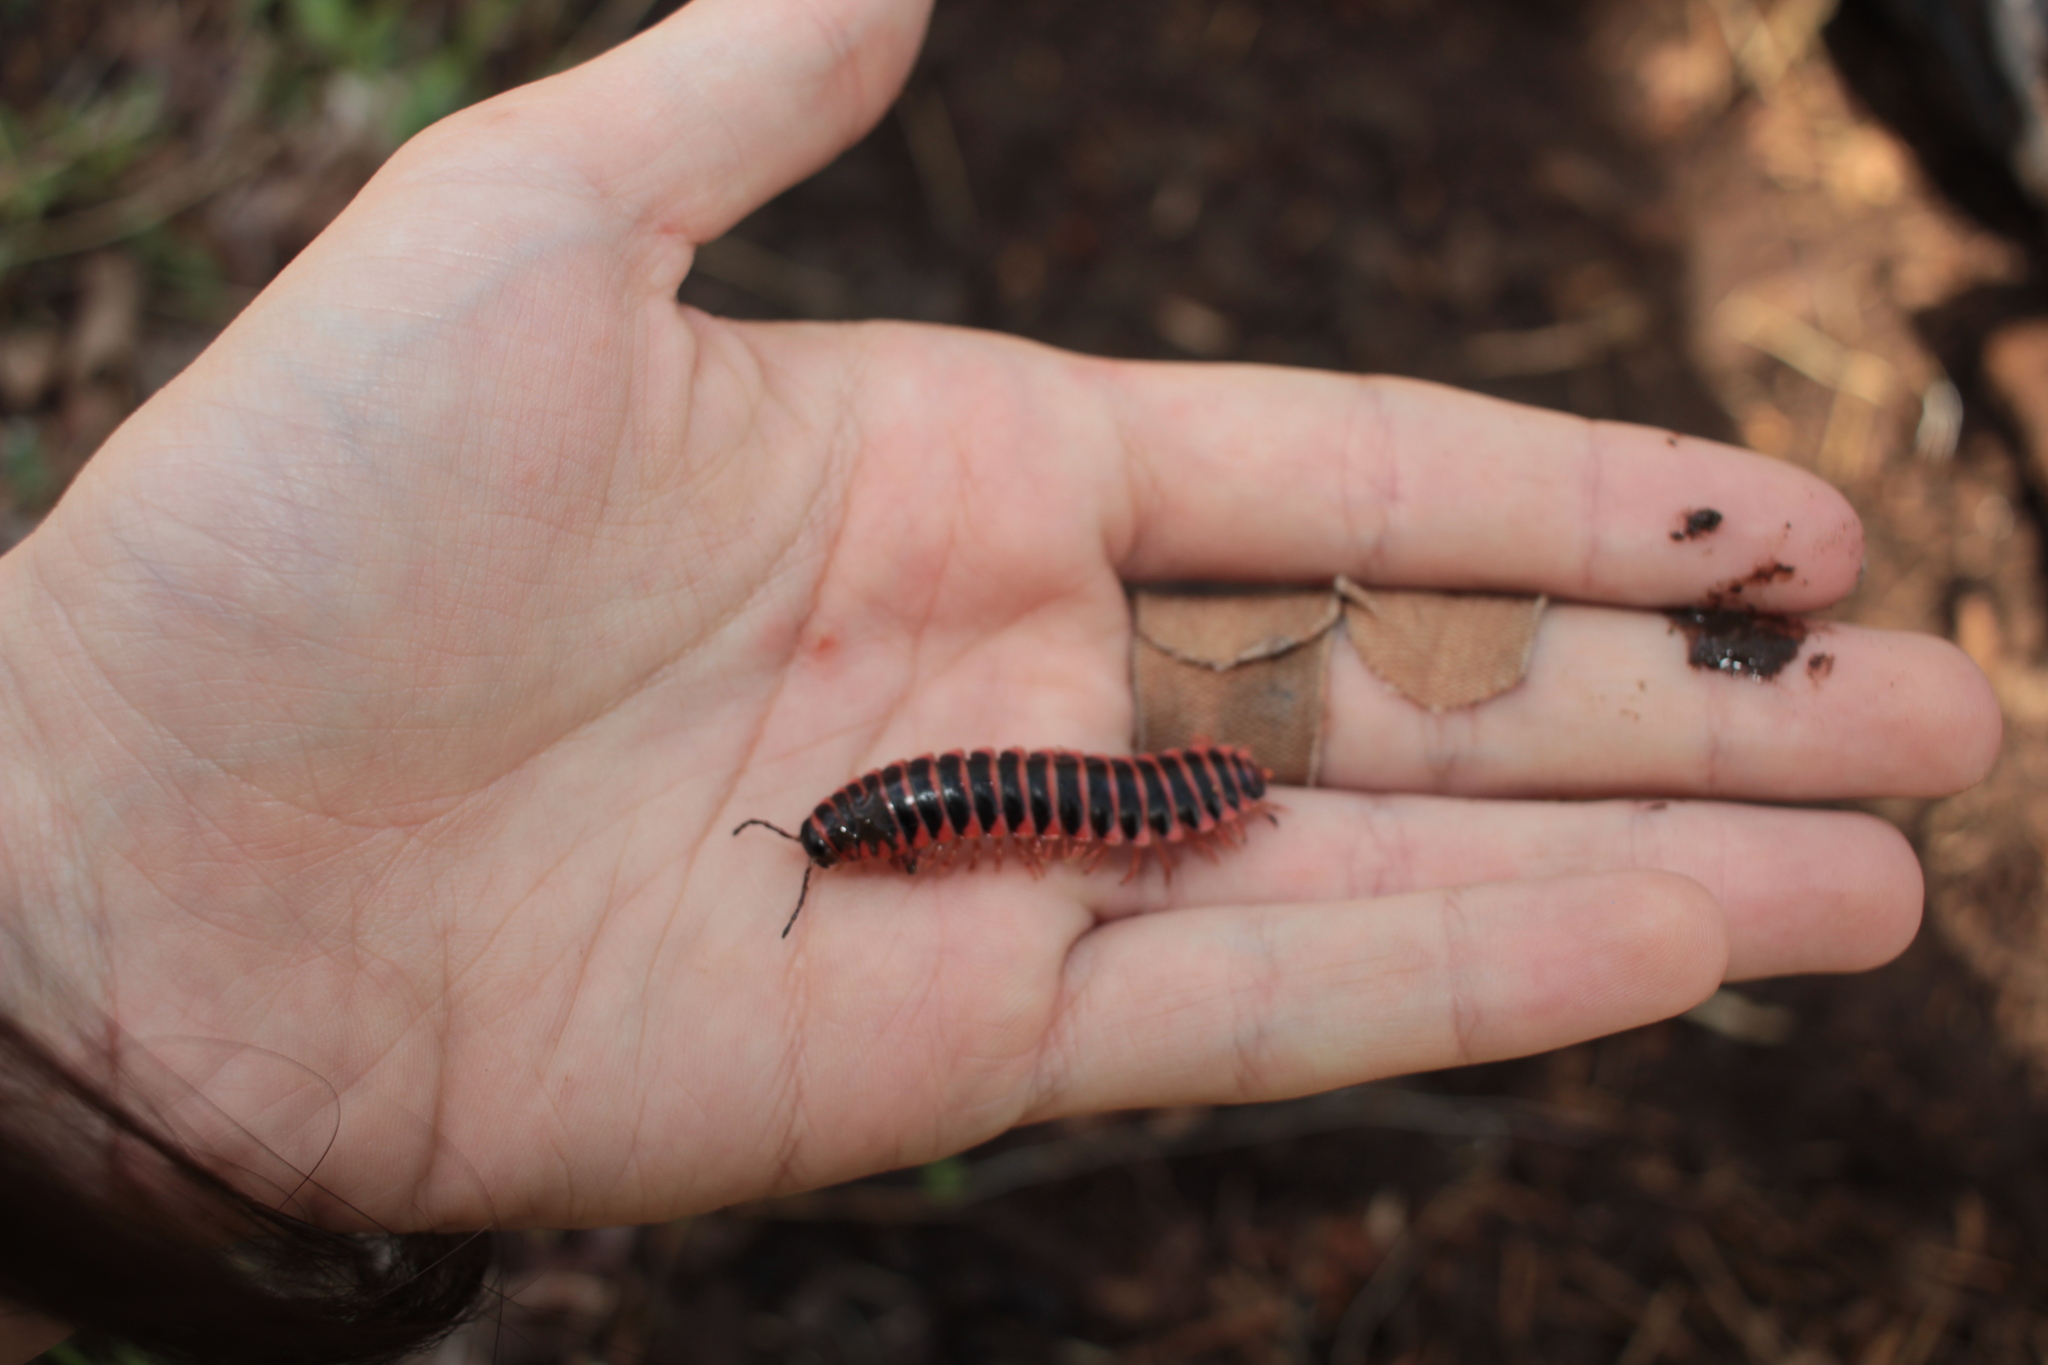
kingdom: Animalia
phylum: Arthropoda
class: Diplopoda
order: Polydesmida
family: Xystodesmidae
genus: Appalachioria
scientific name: Appalachioria
